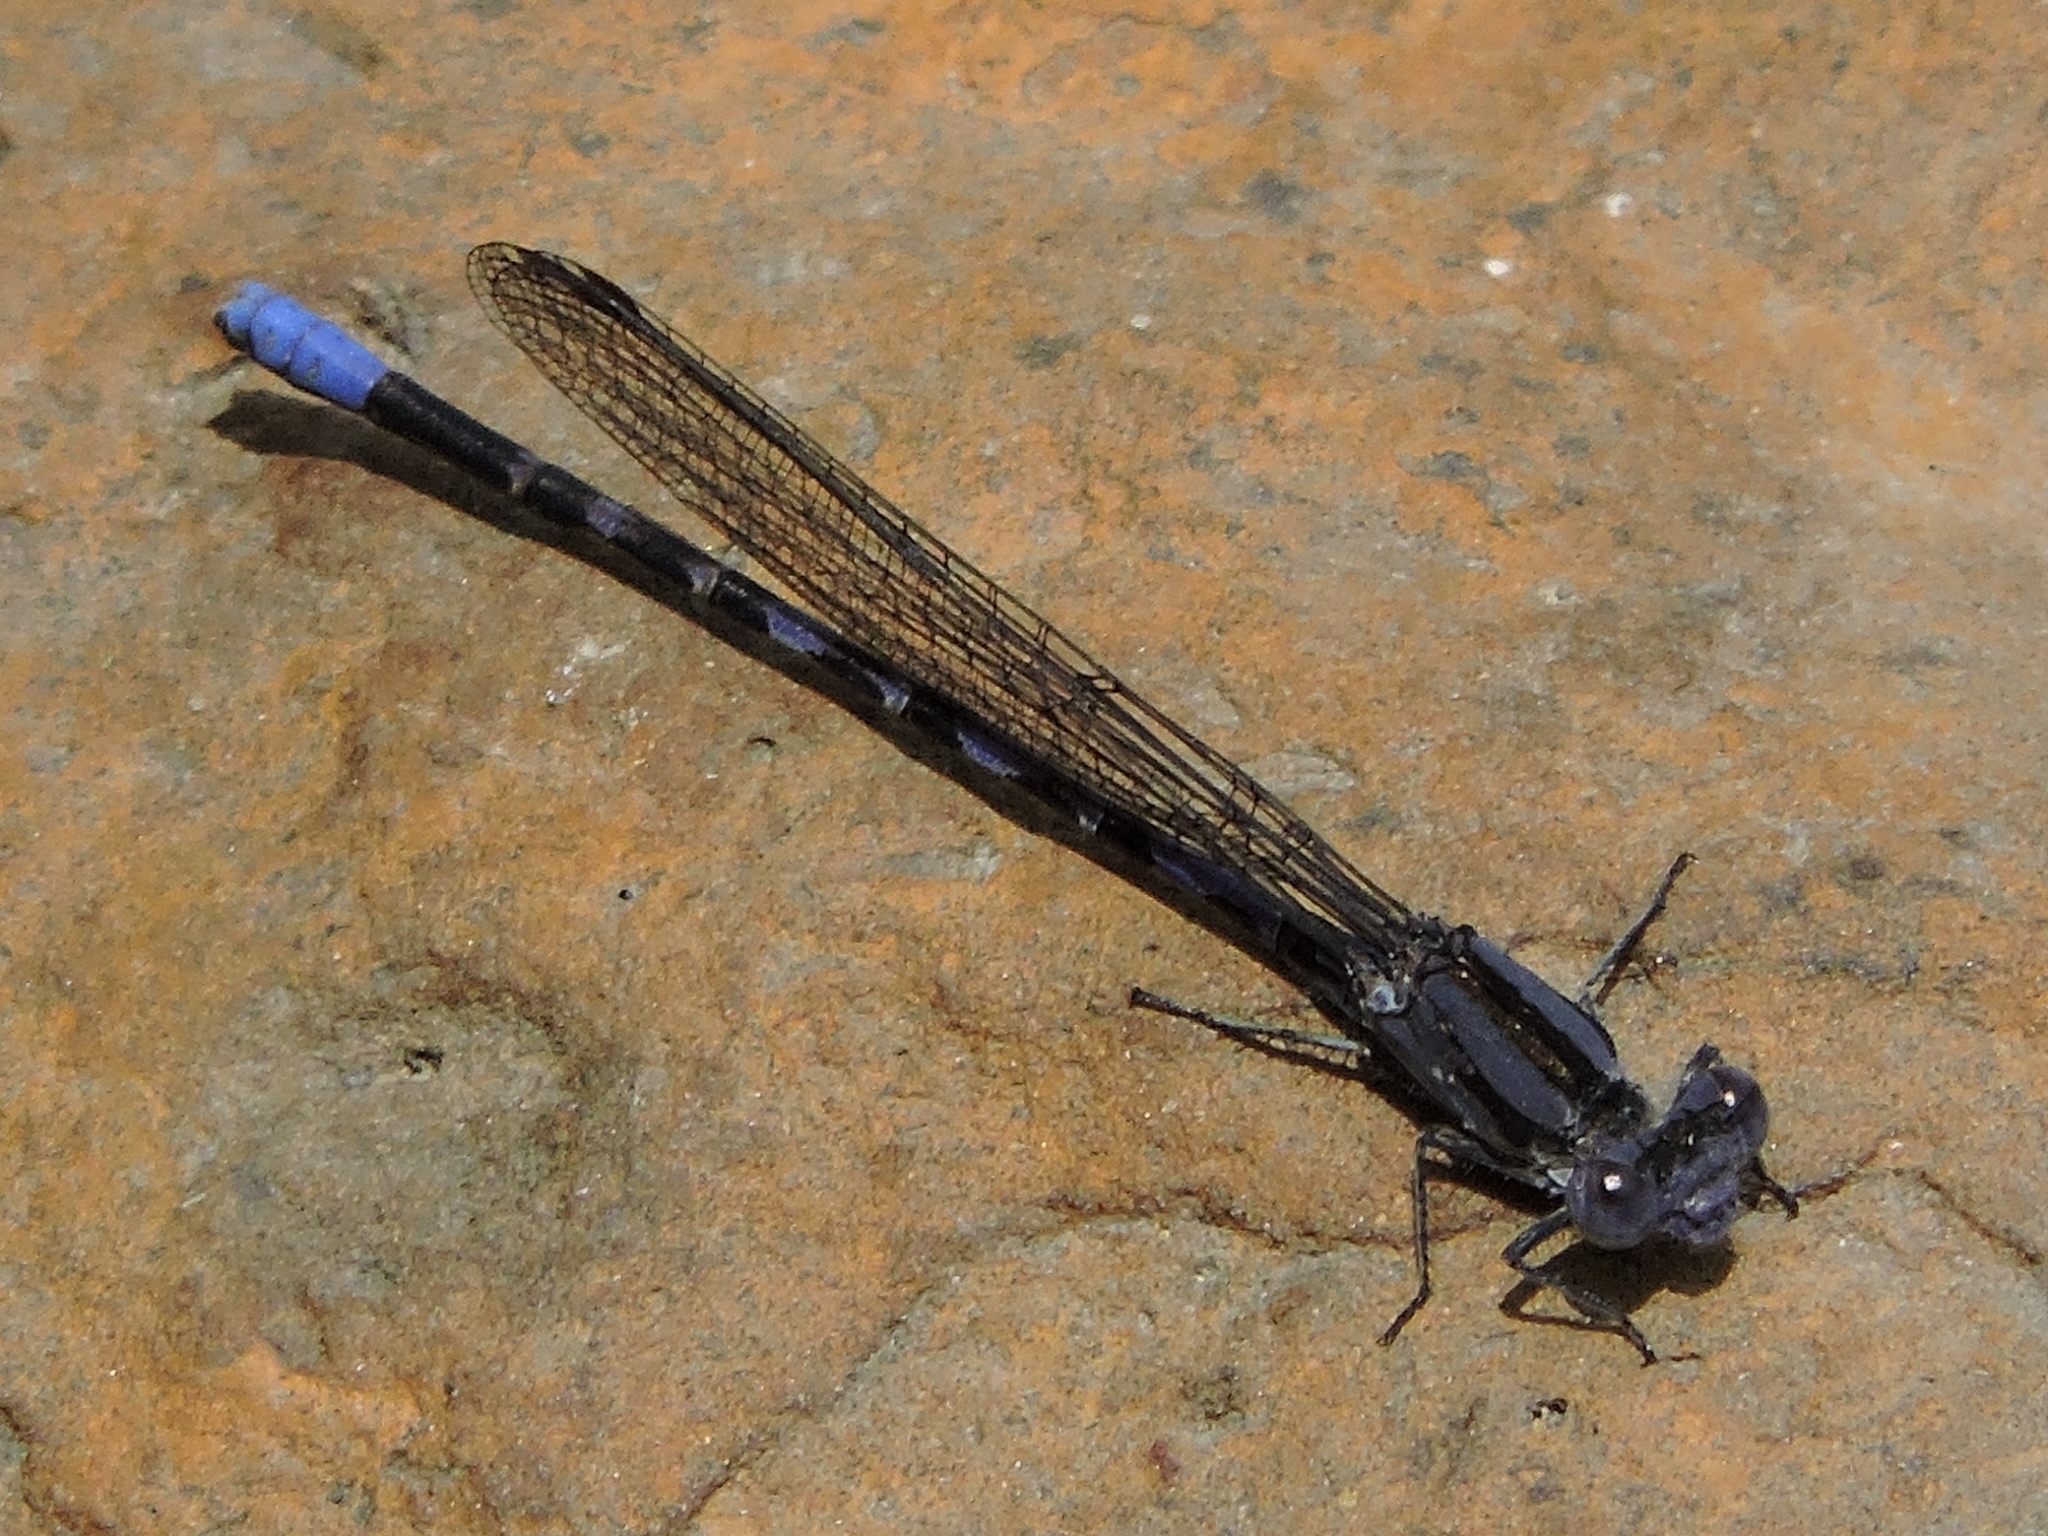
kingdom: Animalia
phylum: Arthropoda
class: Insecta
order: Odonata
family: Coenagrionidae
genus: Argia
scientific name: Argia immunda
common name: Kiowa dancer
